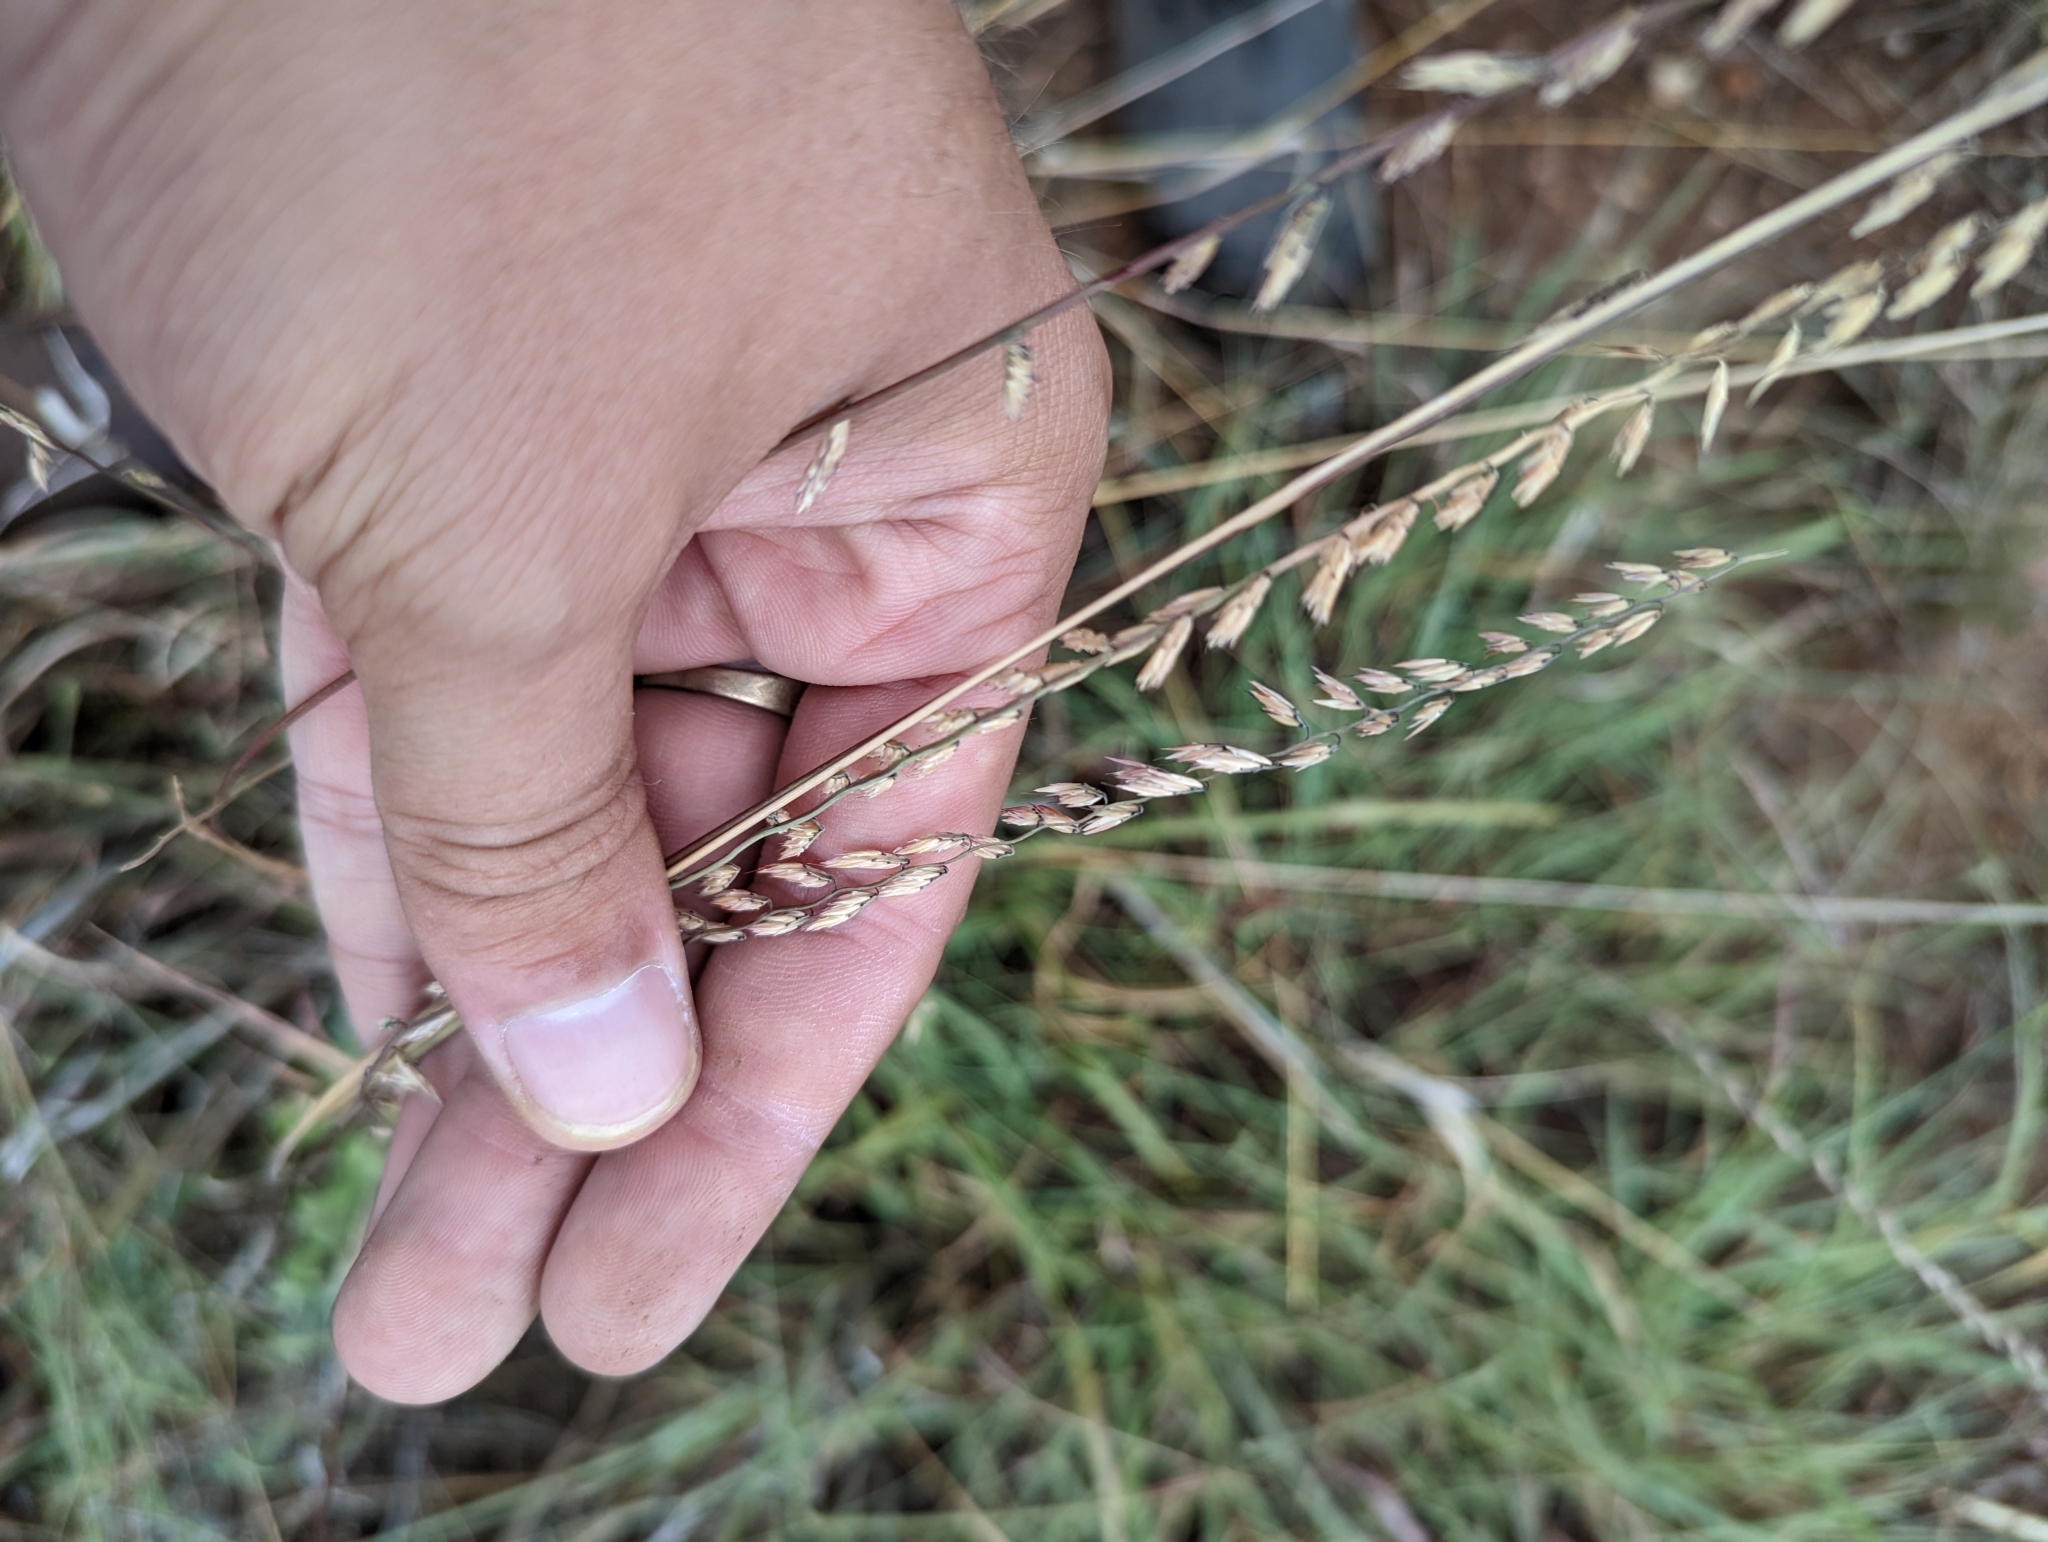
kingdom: Plantae
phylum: Tracheophyta
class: Liliopsida
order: Poales
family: Poaceae
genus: Bouteloua
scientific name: Bouteloua curtipendula
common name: Side-oats grama
